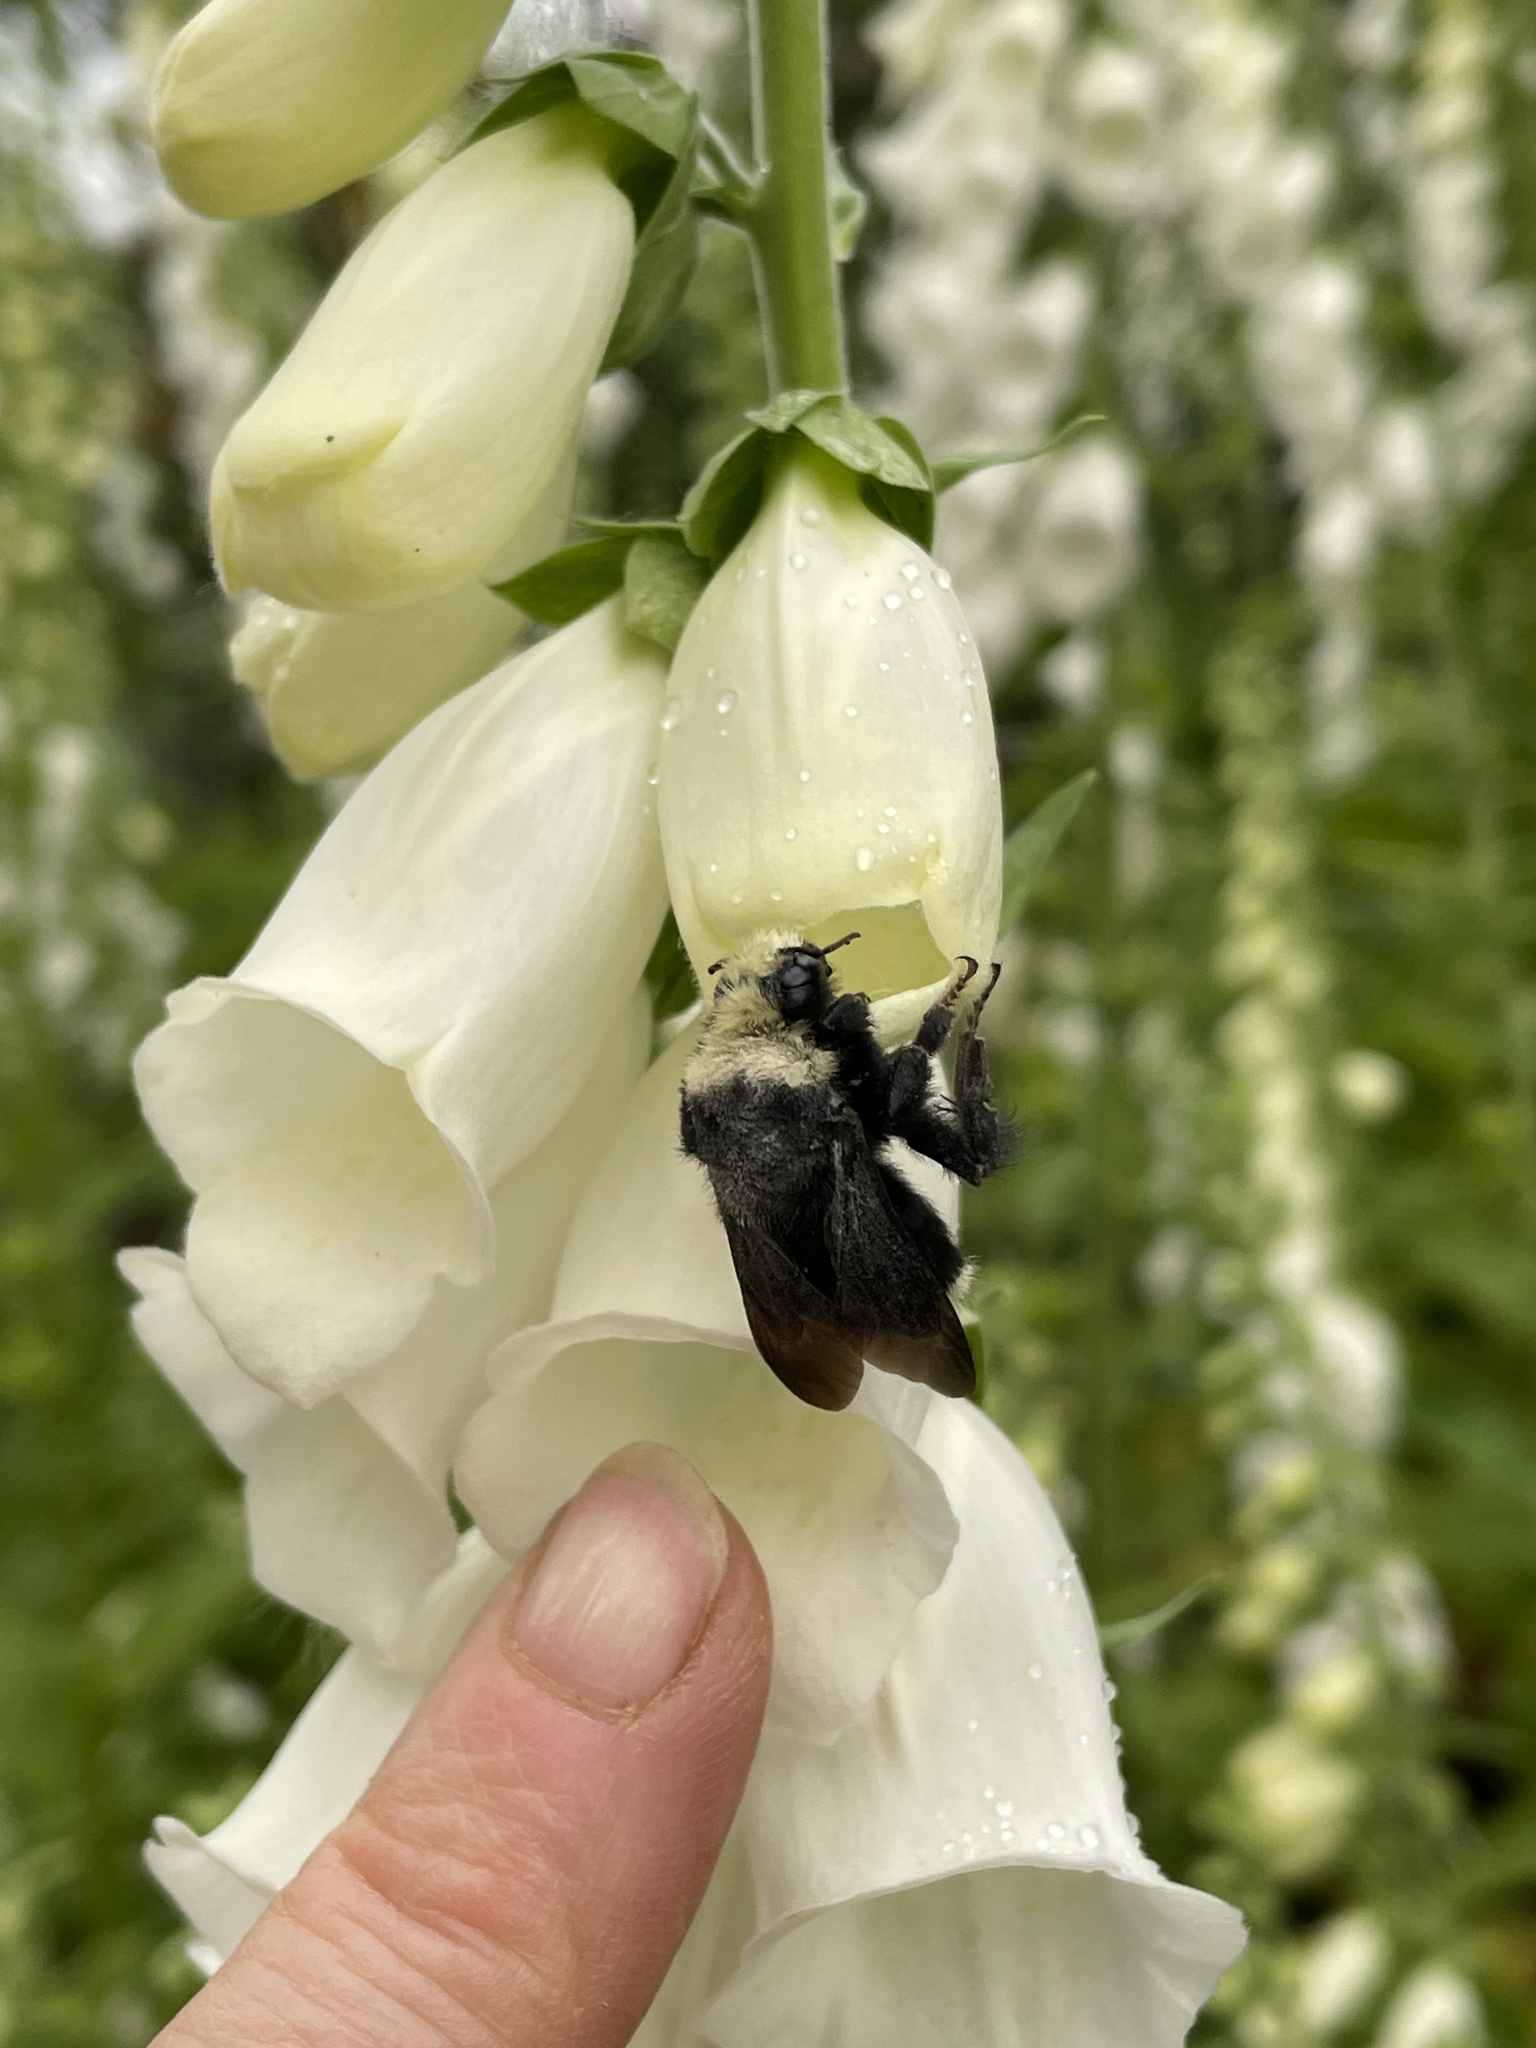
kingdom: Animalia
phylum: Arthropoda
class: Insecta
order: Hymenoptera
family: Apidae
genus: Bombus
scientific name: Bombus vosnesenskii
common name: Vosnesensky bumble bee
